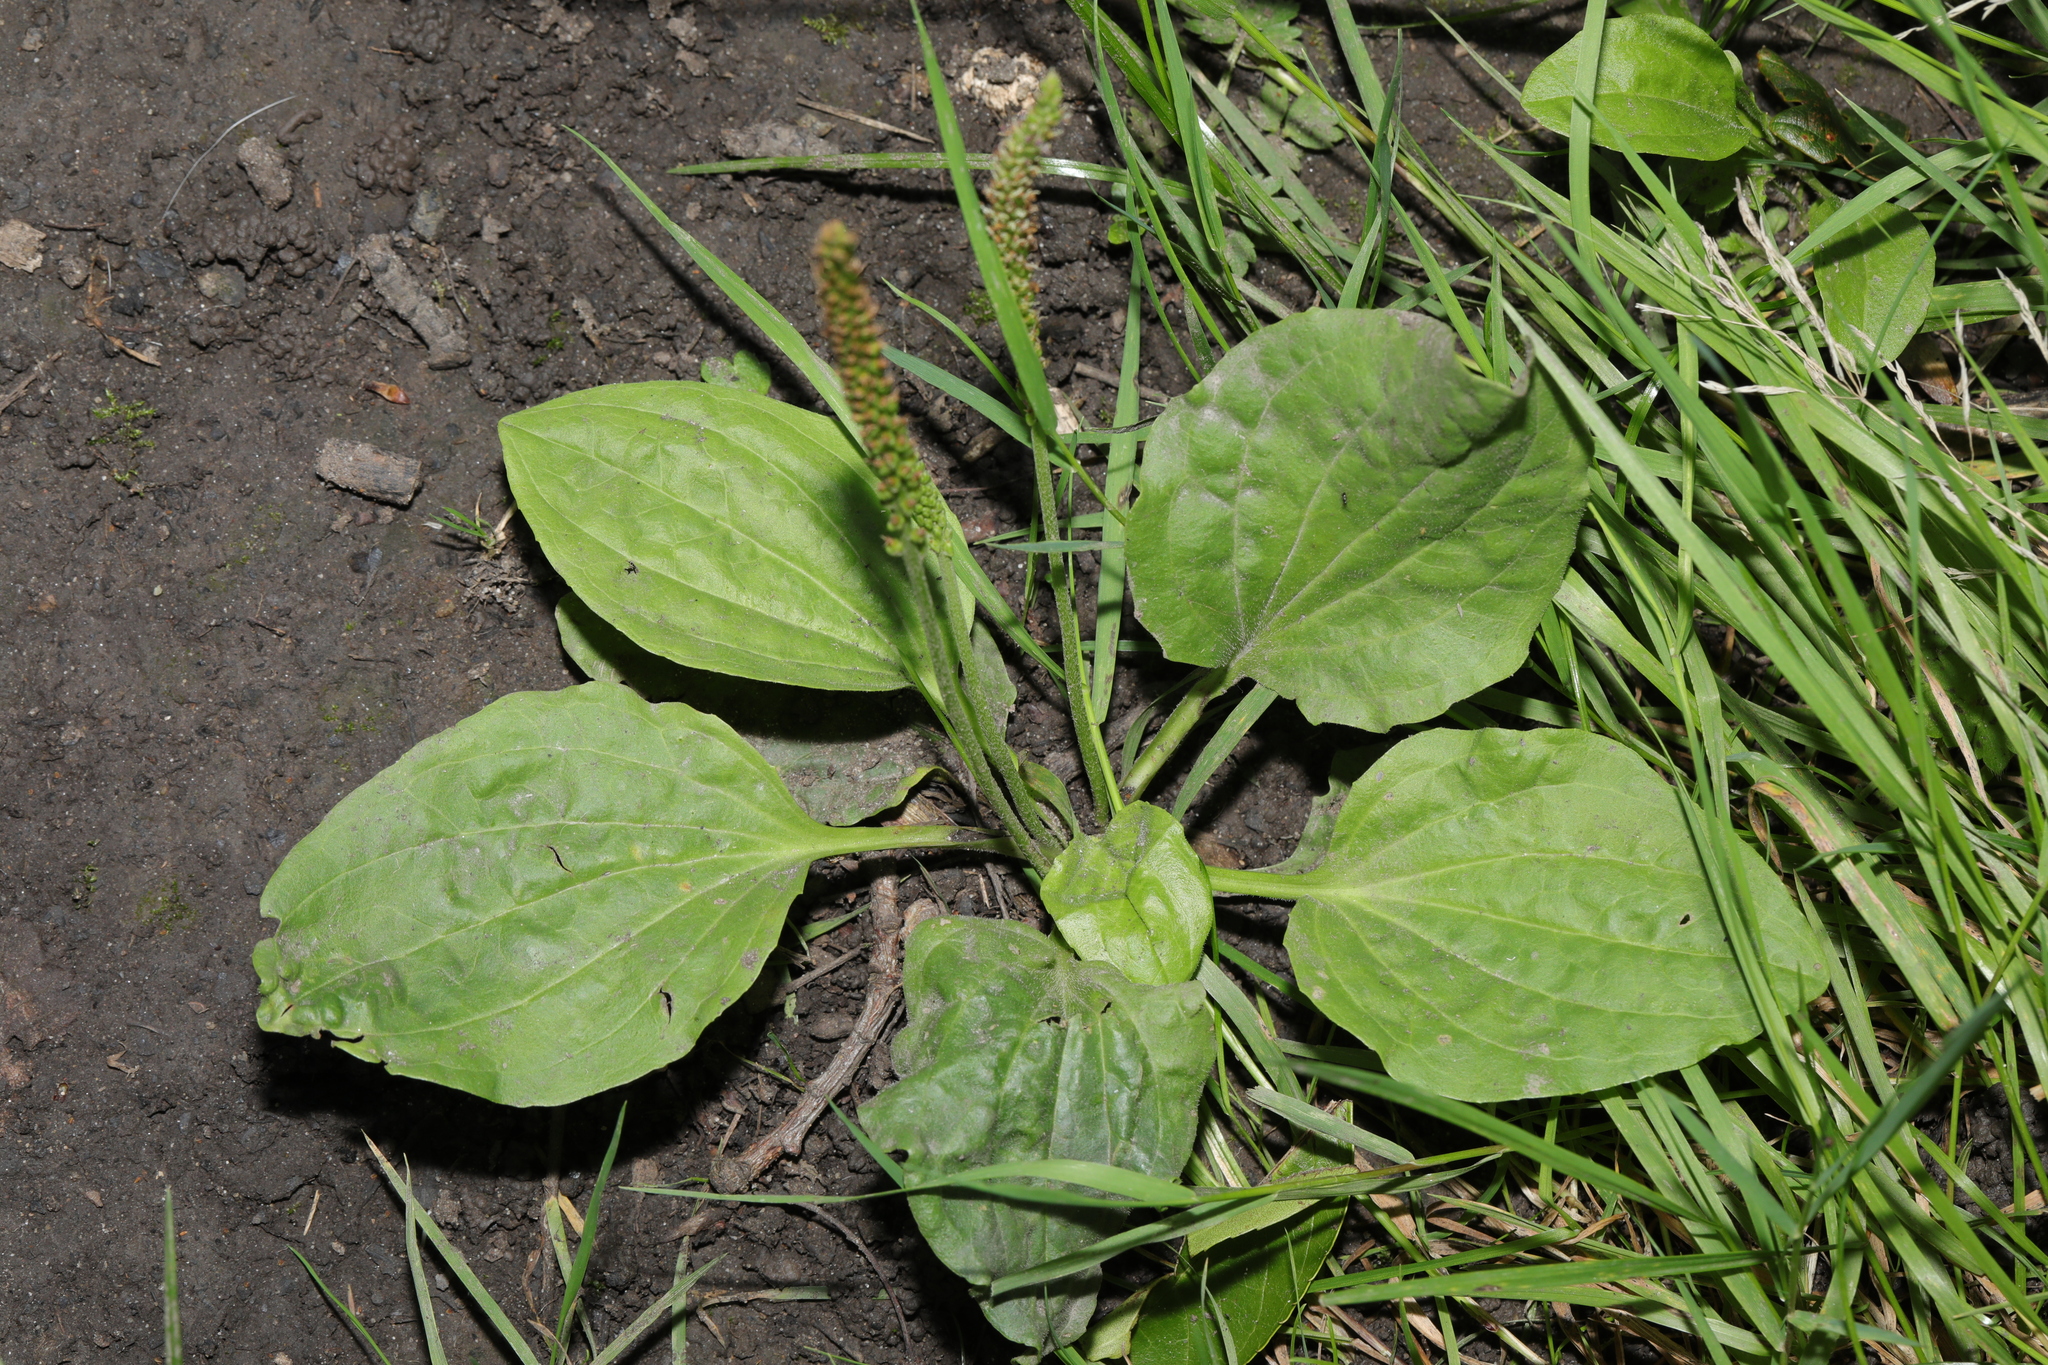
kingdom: Plantae
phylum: Tracheophyta
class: Magnoliopsida
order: Lamiales
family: Plantaginaceae
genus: Plantago
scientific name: Plantago major
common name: Common plantain
